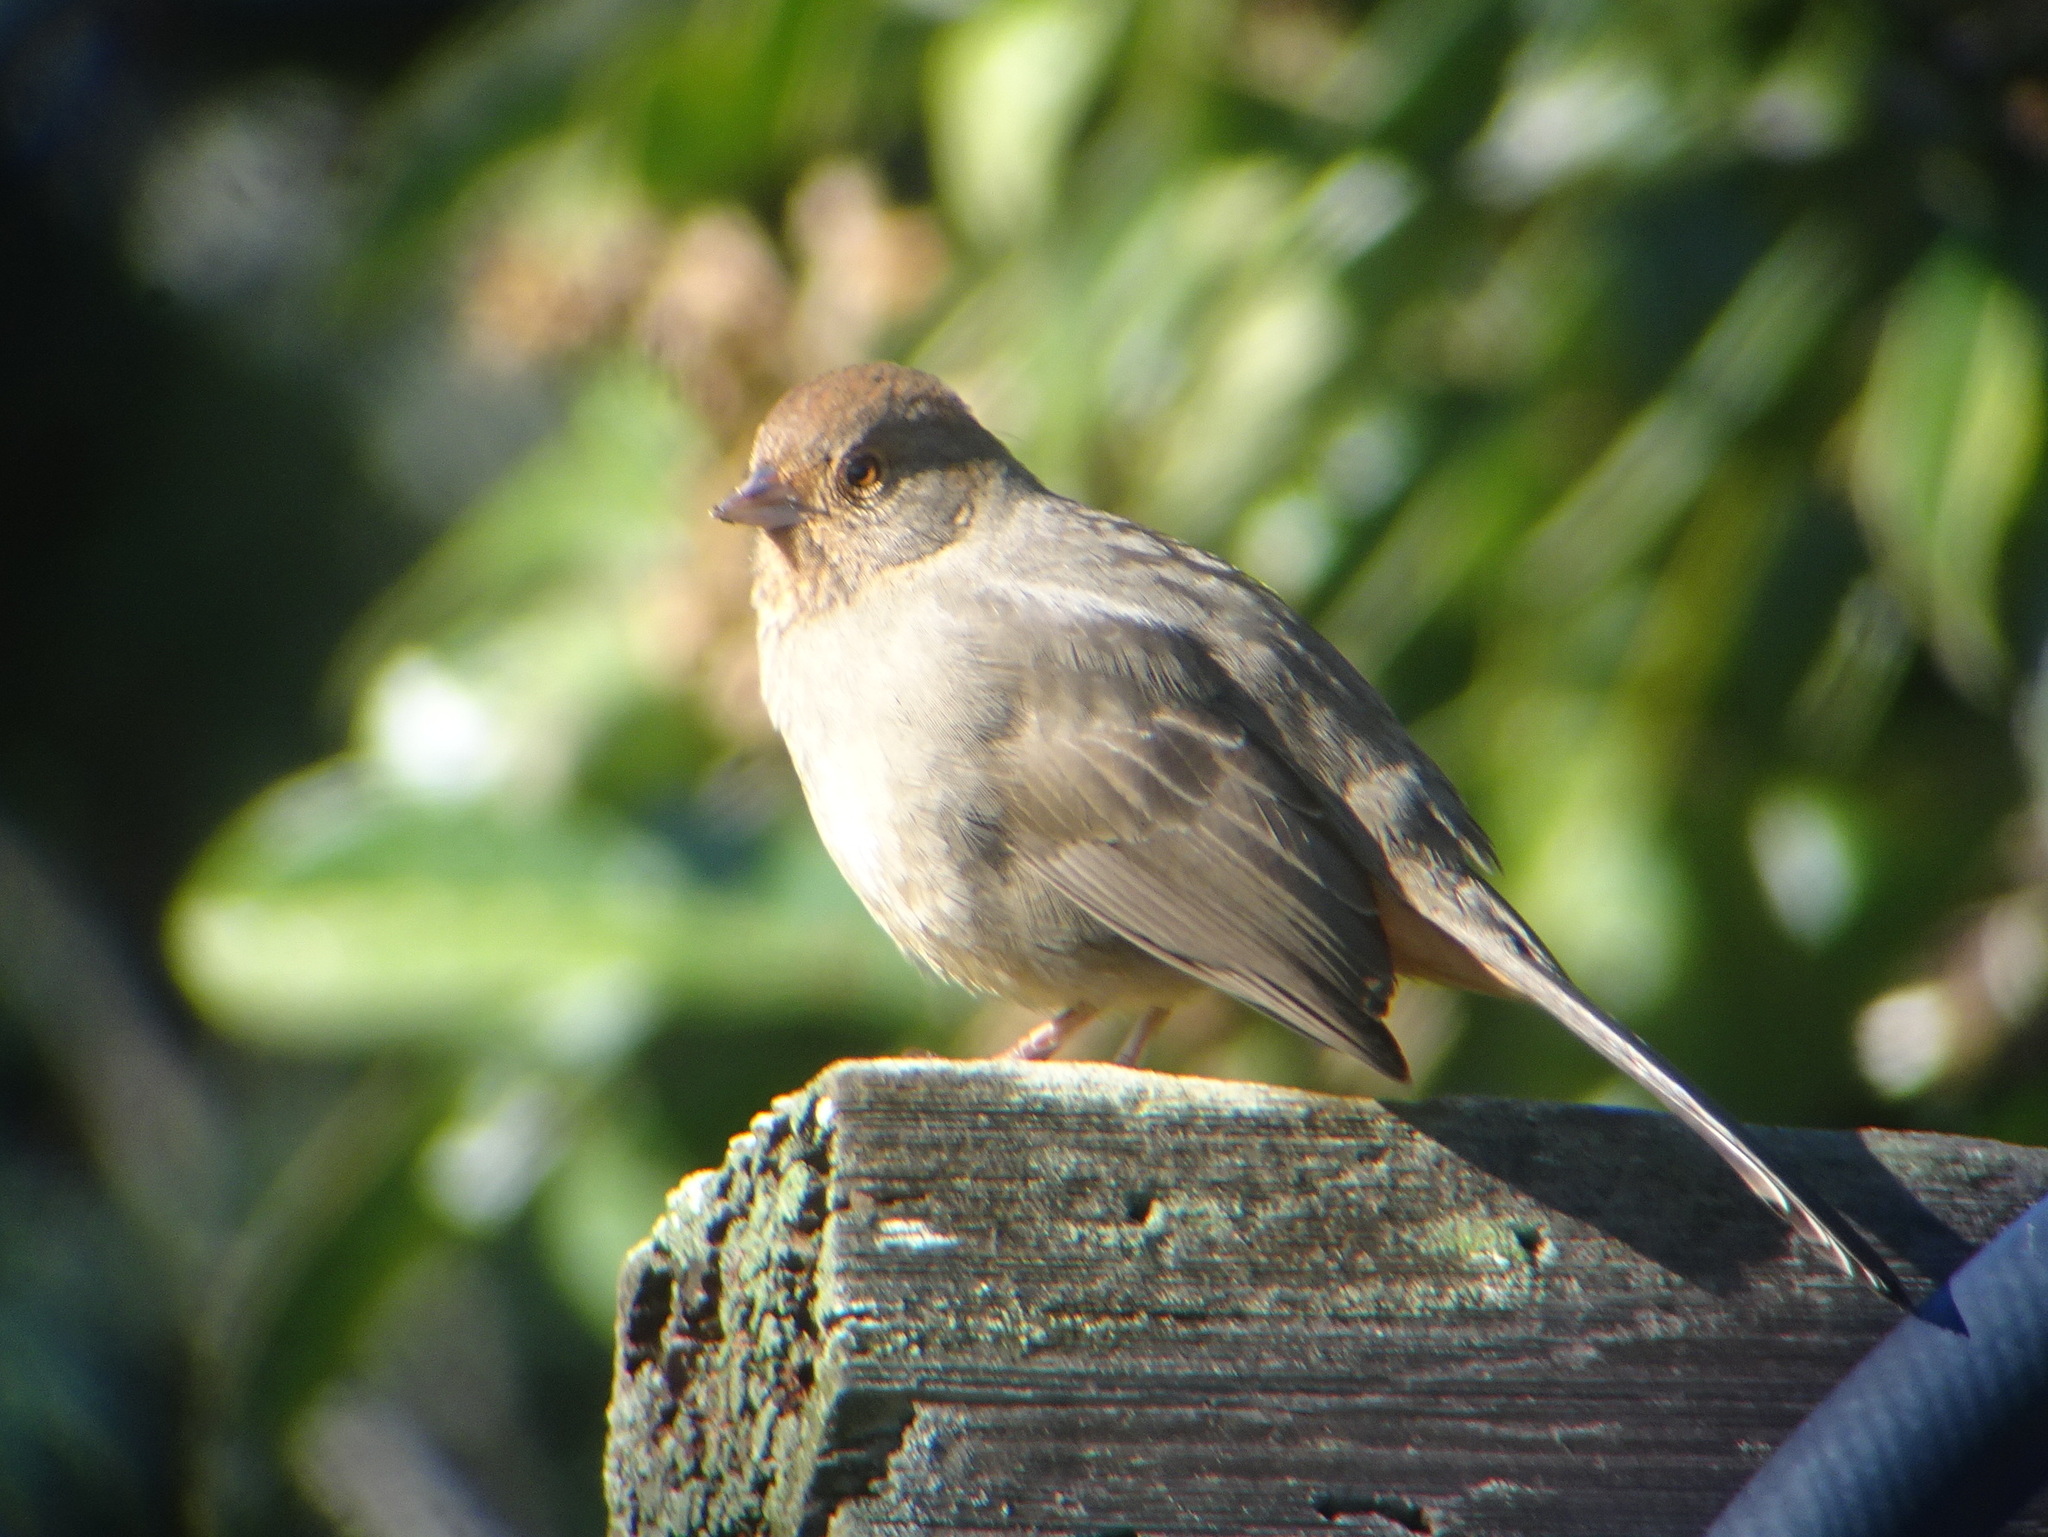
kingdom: Animalia
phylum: Chordata
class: Aves
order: Passeriformes
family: Passerellidae
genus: Melozone
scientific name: Melozone crissalis
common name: California towhee
